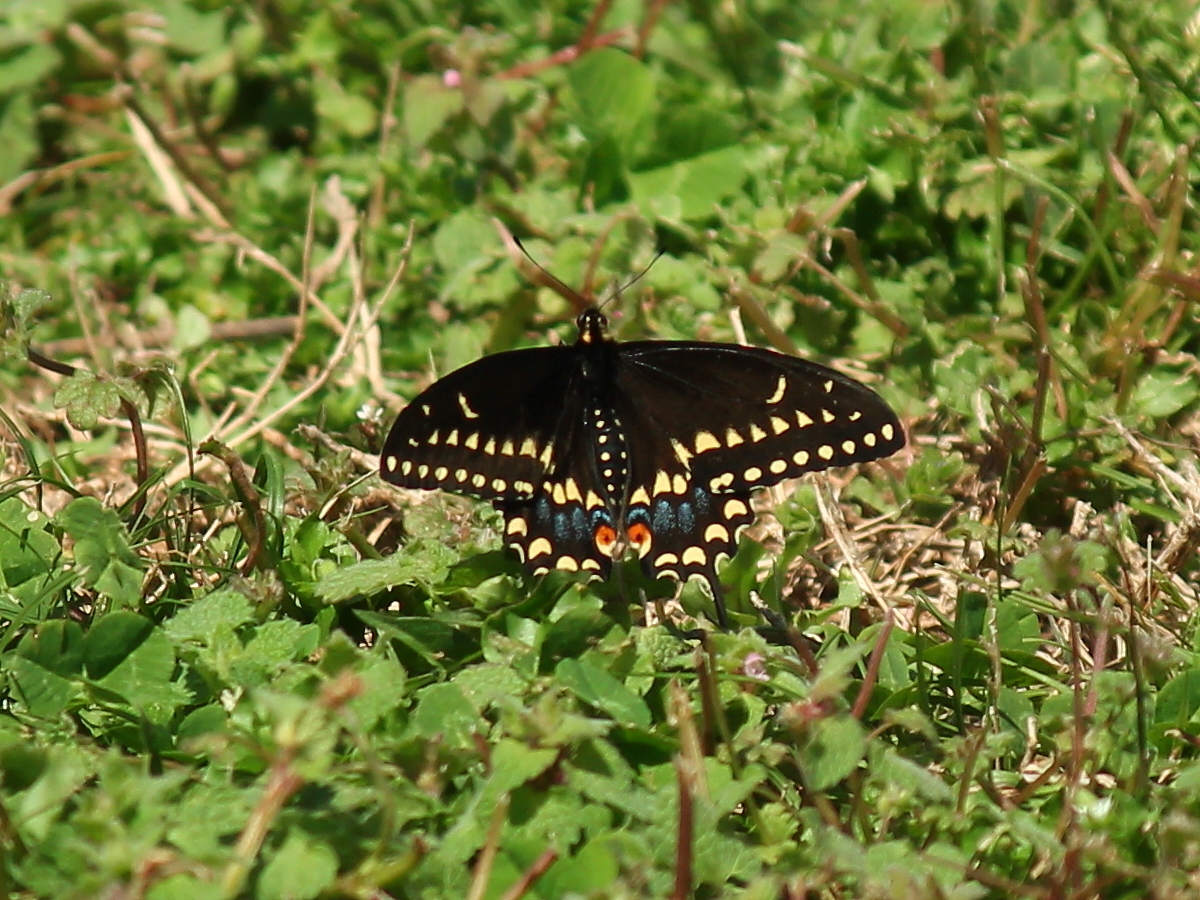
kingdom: Animalia
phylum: Arthropoda
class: Insecta
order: Lepidoptera
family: Papilionidae
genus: Papilio
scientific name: Papilio polyxenes
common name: Black swallowtail
